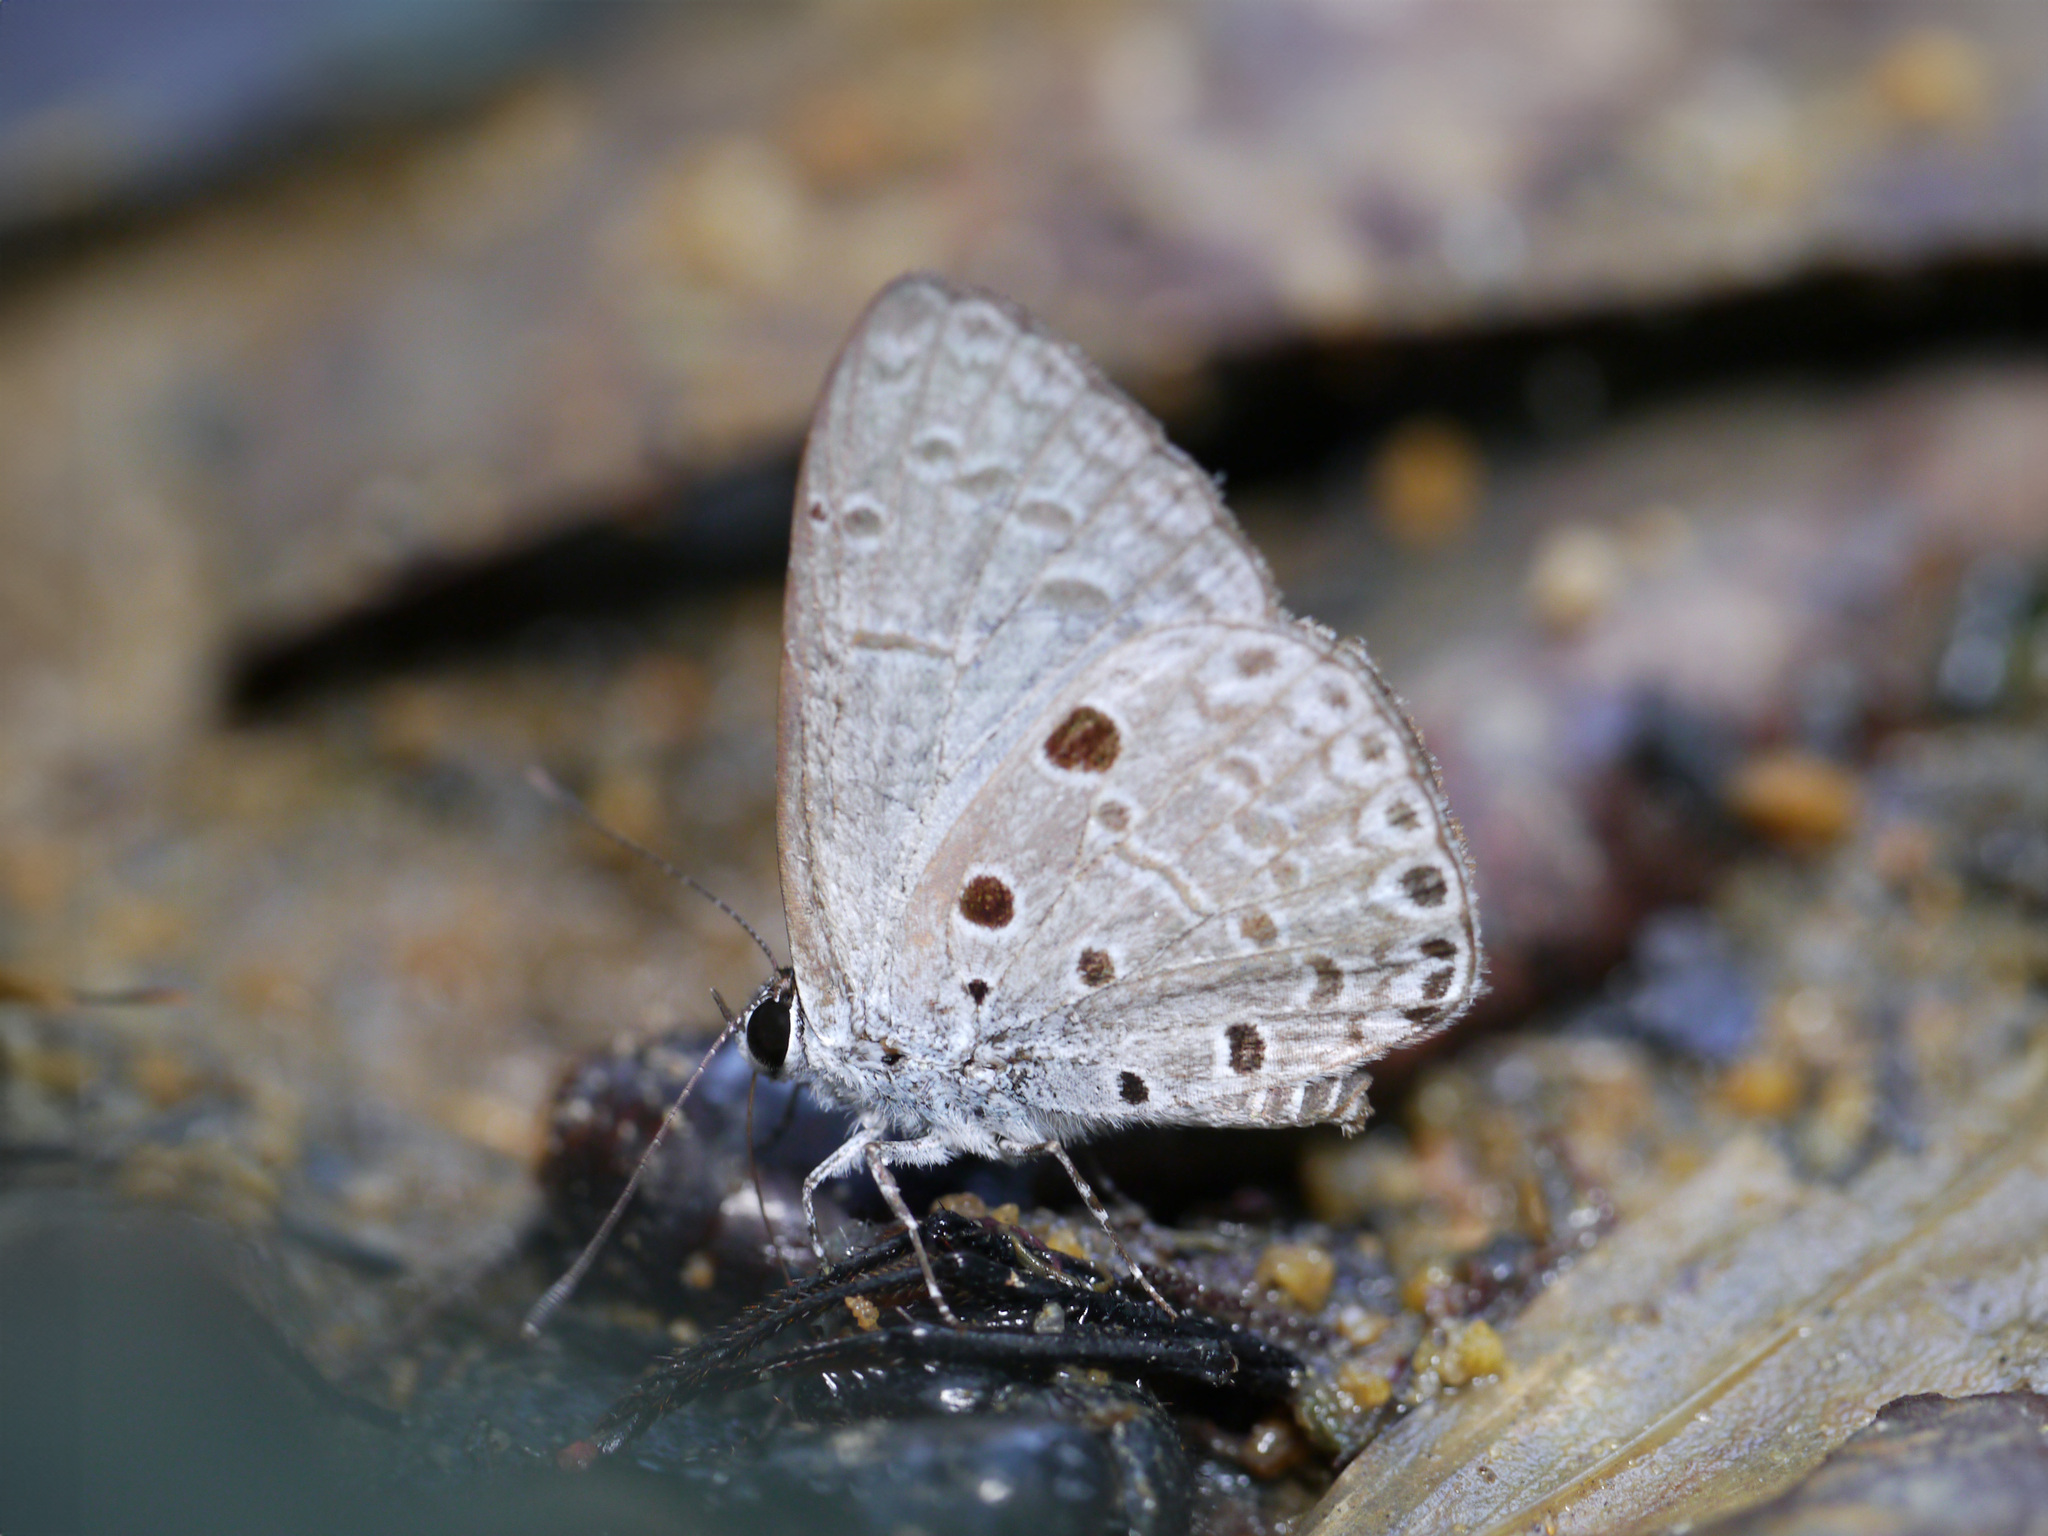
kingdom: Animalia
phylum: Arthropoda
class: Insecta
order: Lepidoptera
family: Lycaenidae
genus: Acytolepis
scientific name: Acytolepis puspa
